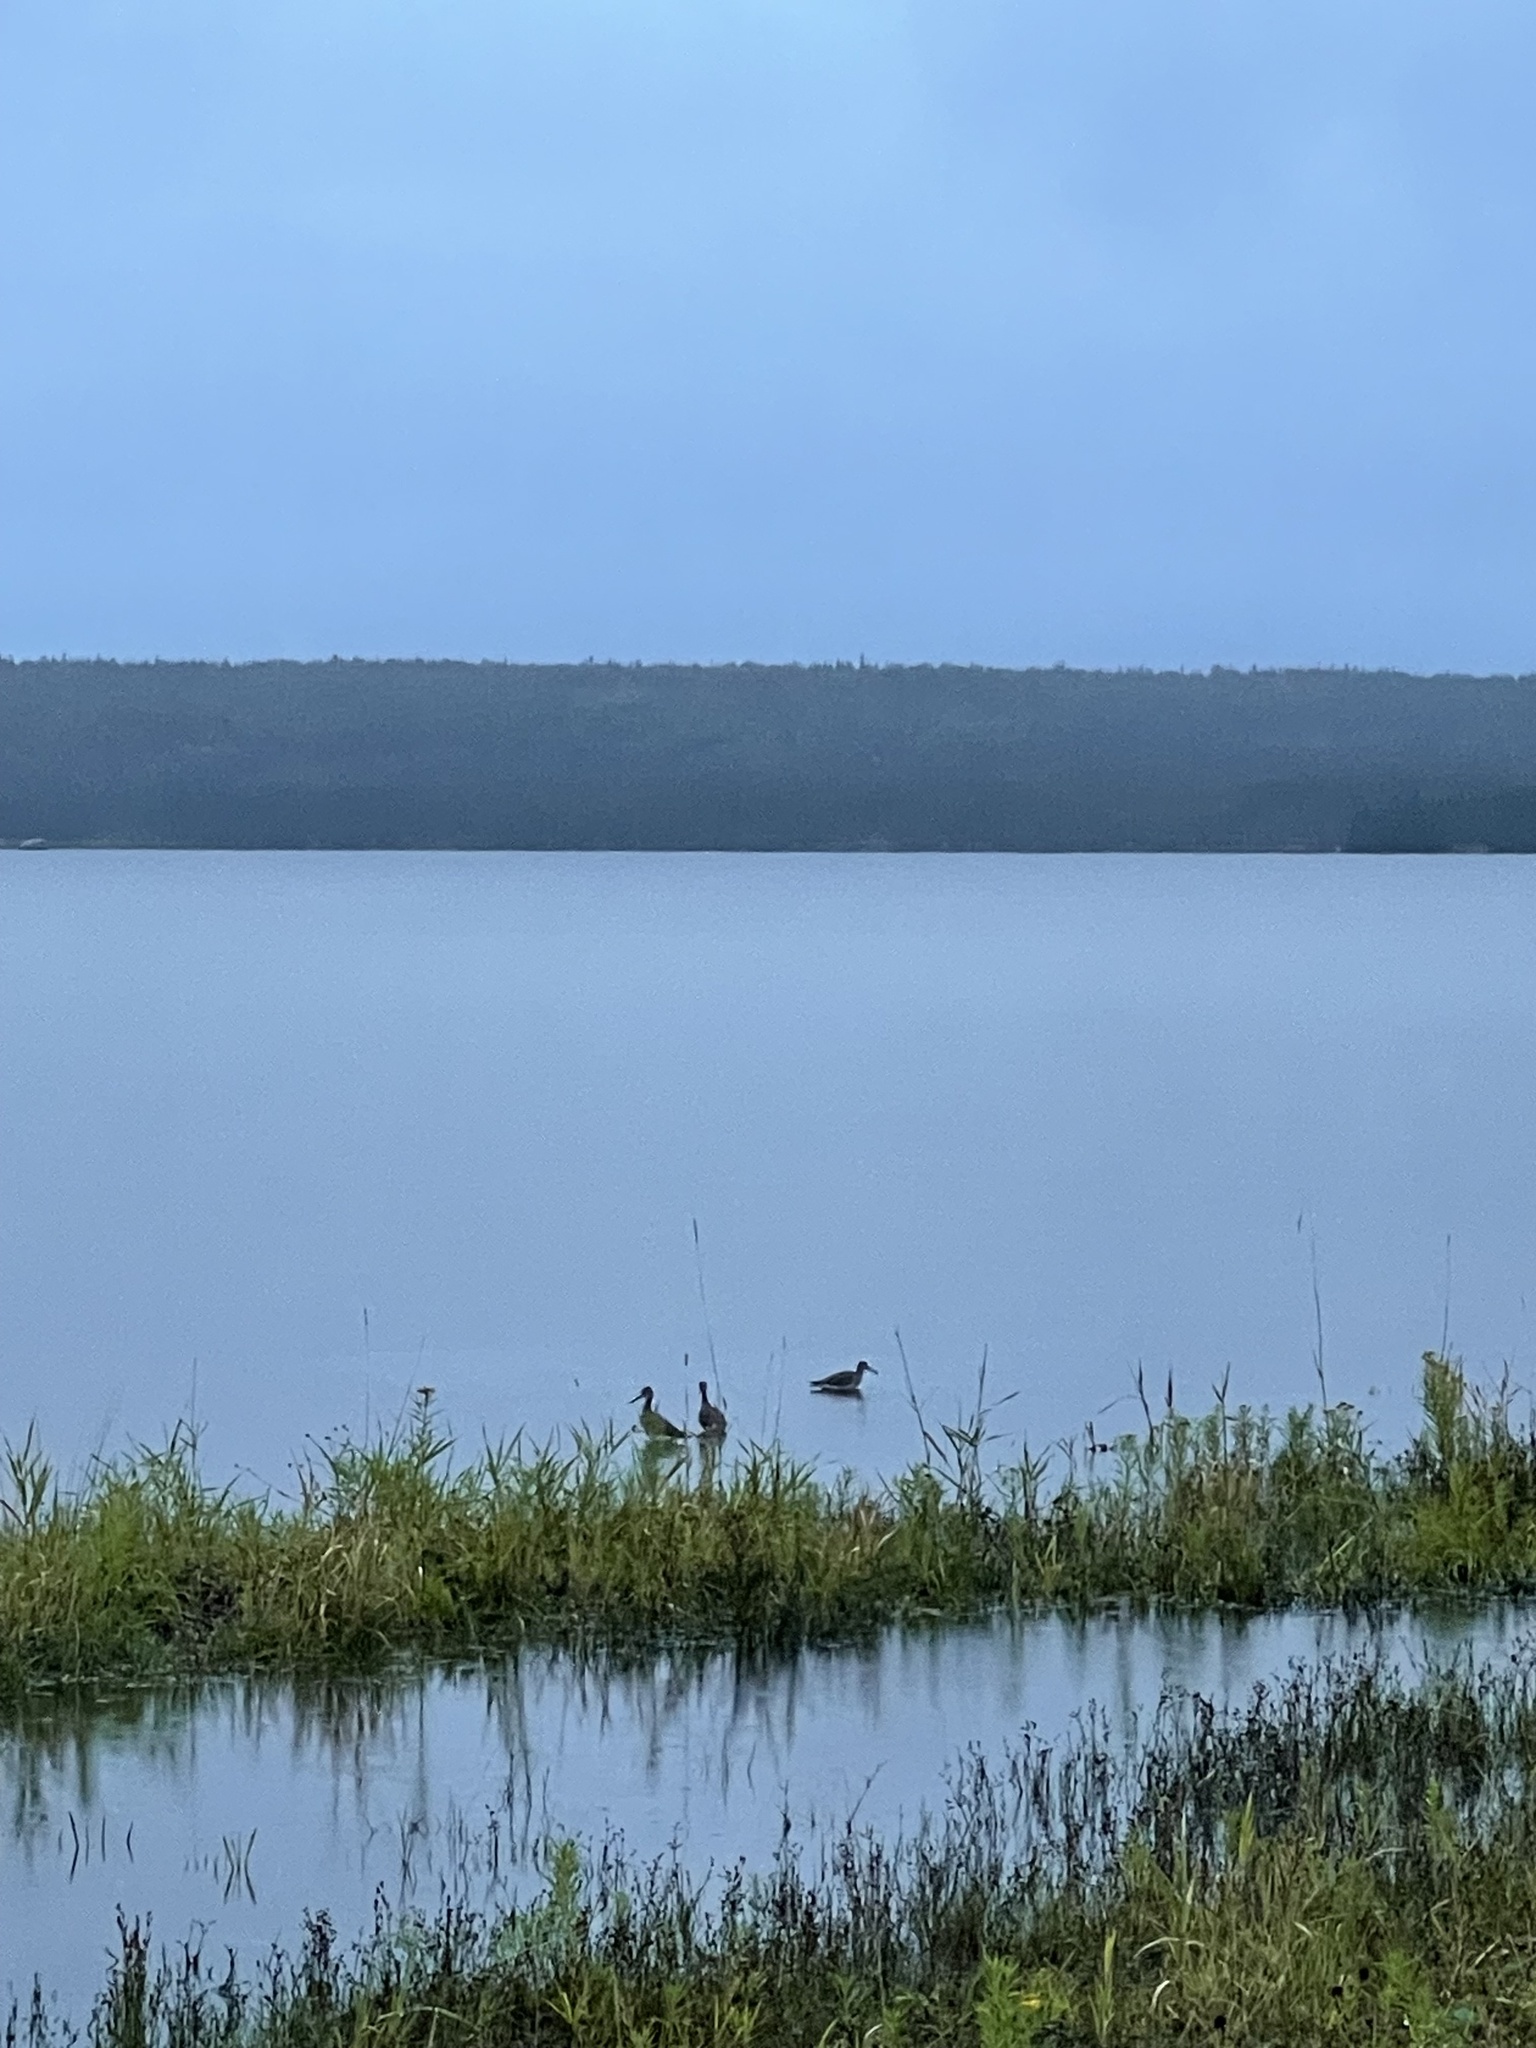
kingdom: Animalia
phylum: Chordata
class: Aves
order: Charadriiformes
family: Scolopacidae
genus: Tringa
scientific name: Tringa melanoleuca
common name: Greater yellowlegs
